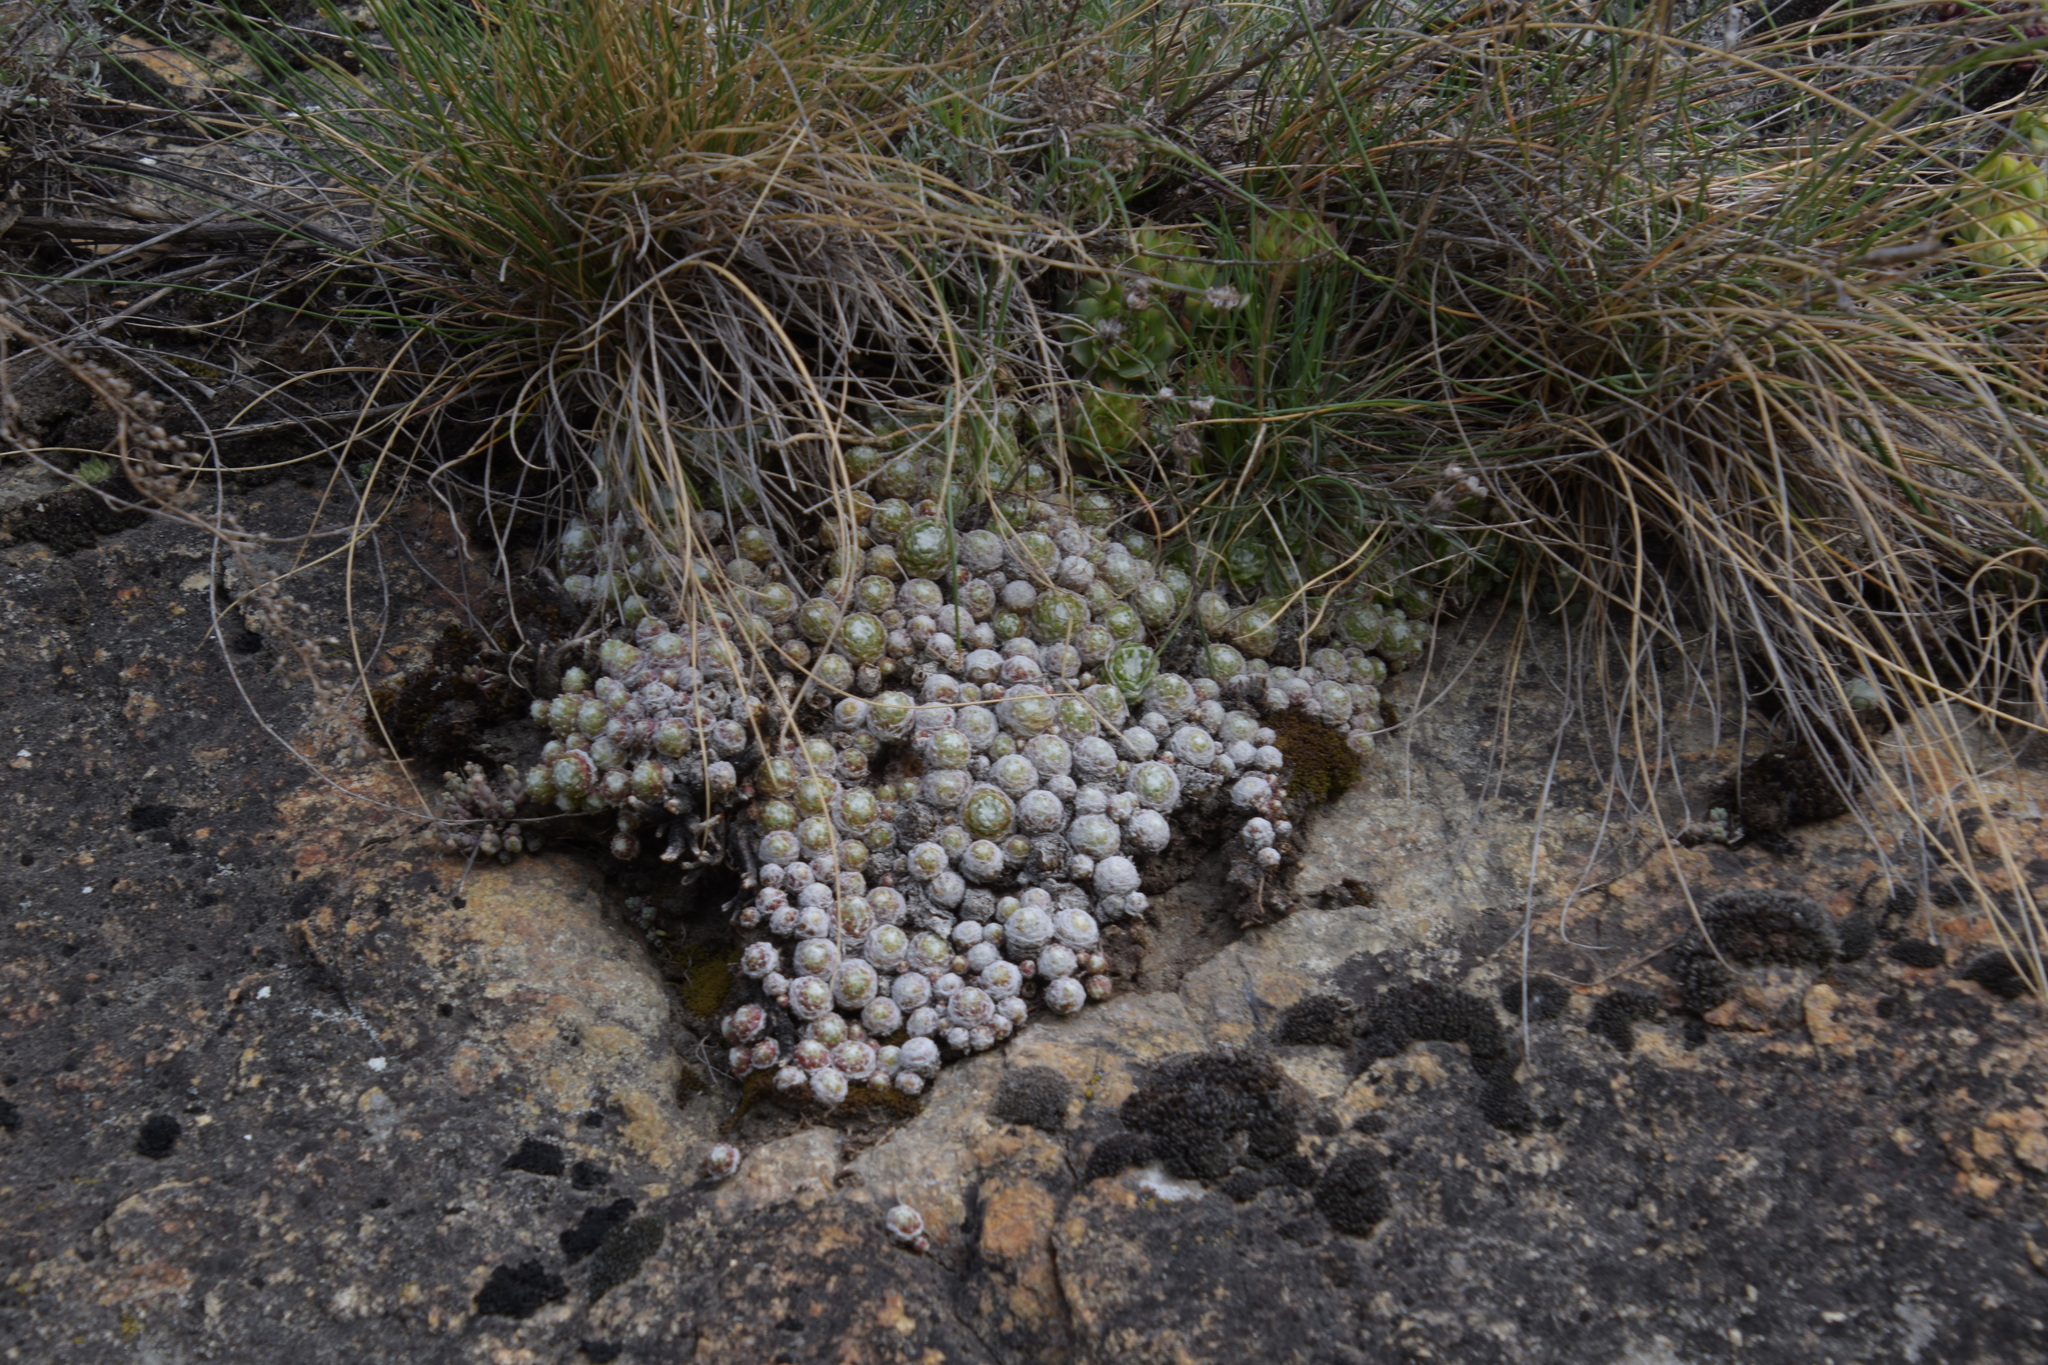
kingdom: Plantae
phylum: Tracheophyta
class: Magnoliopsida
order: Saxifragales
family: Crassulaceae
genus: Sempervivum
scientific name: Sempervivum arachnoideum
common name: Cobweb house-leek
